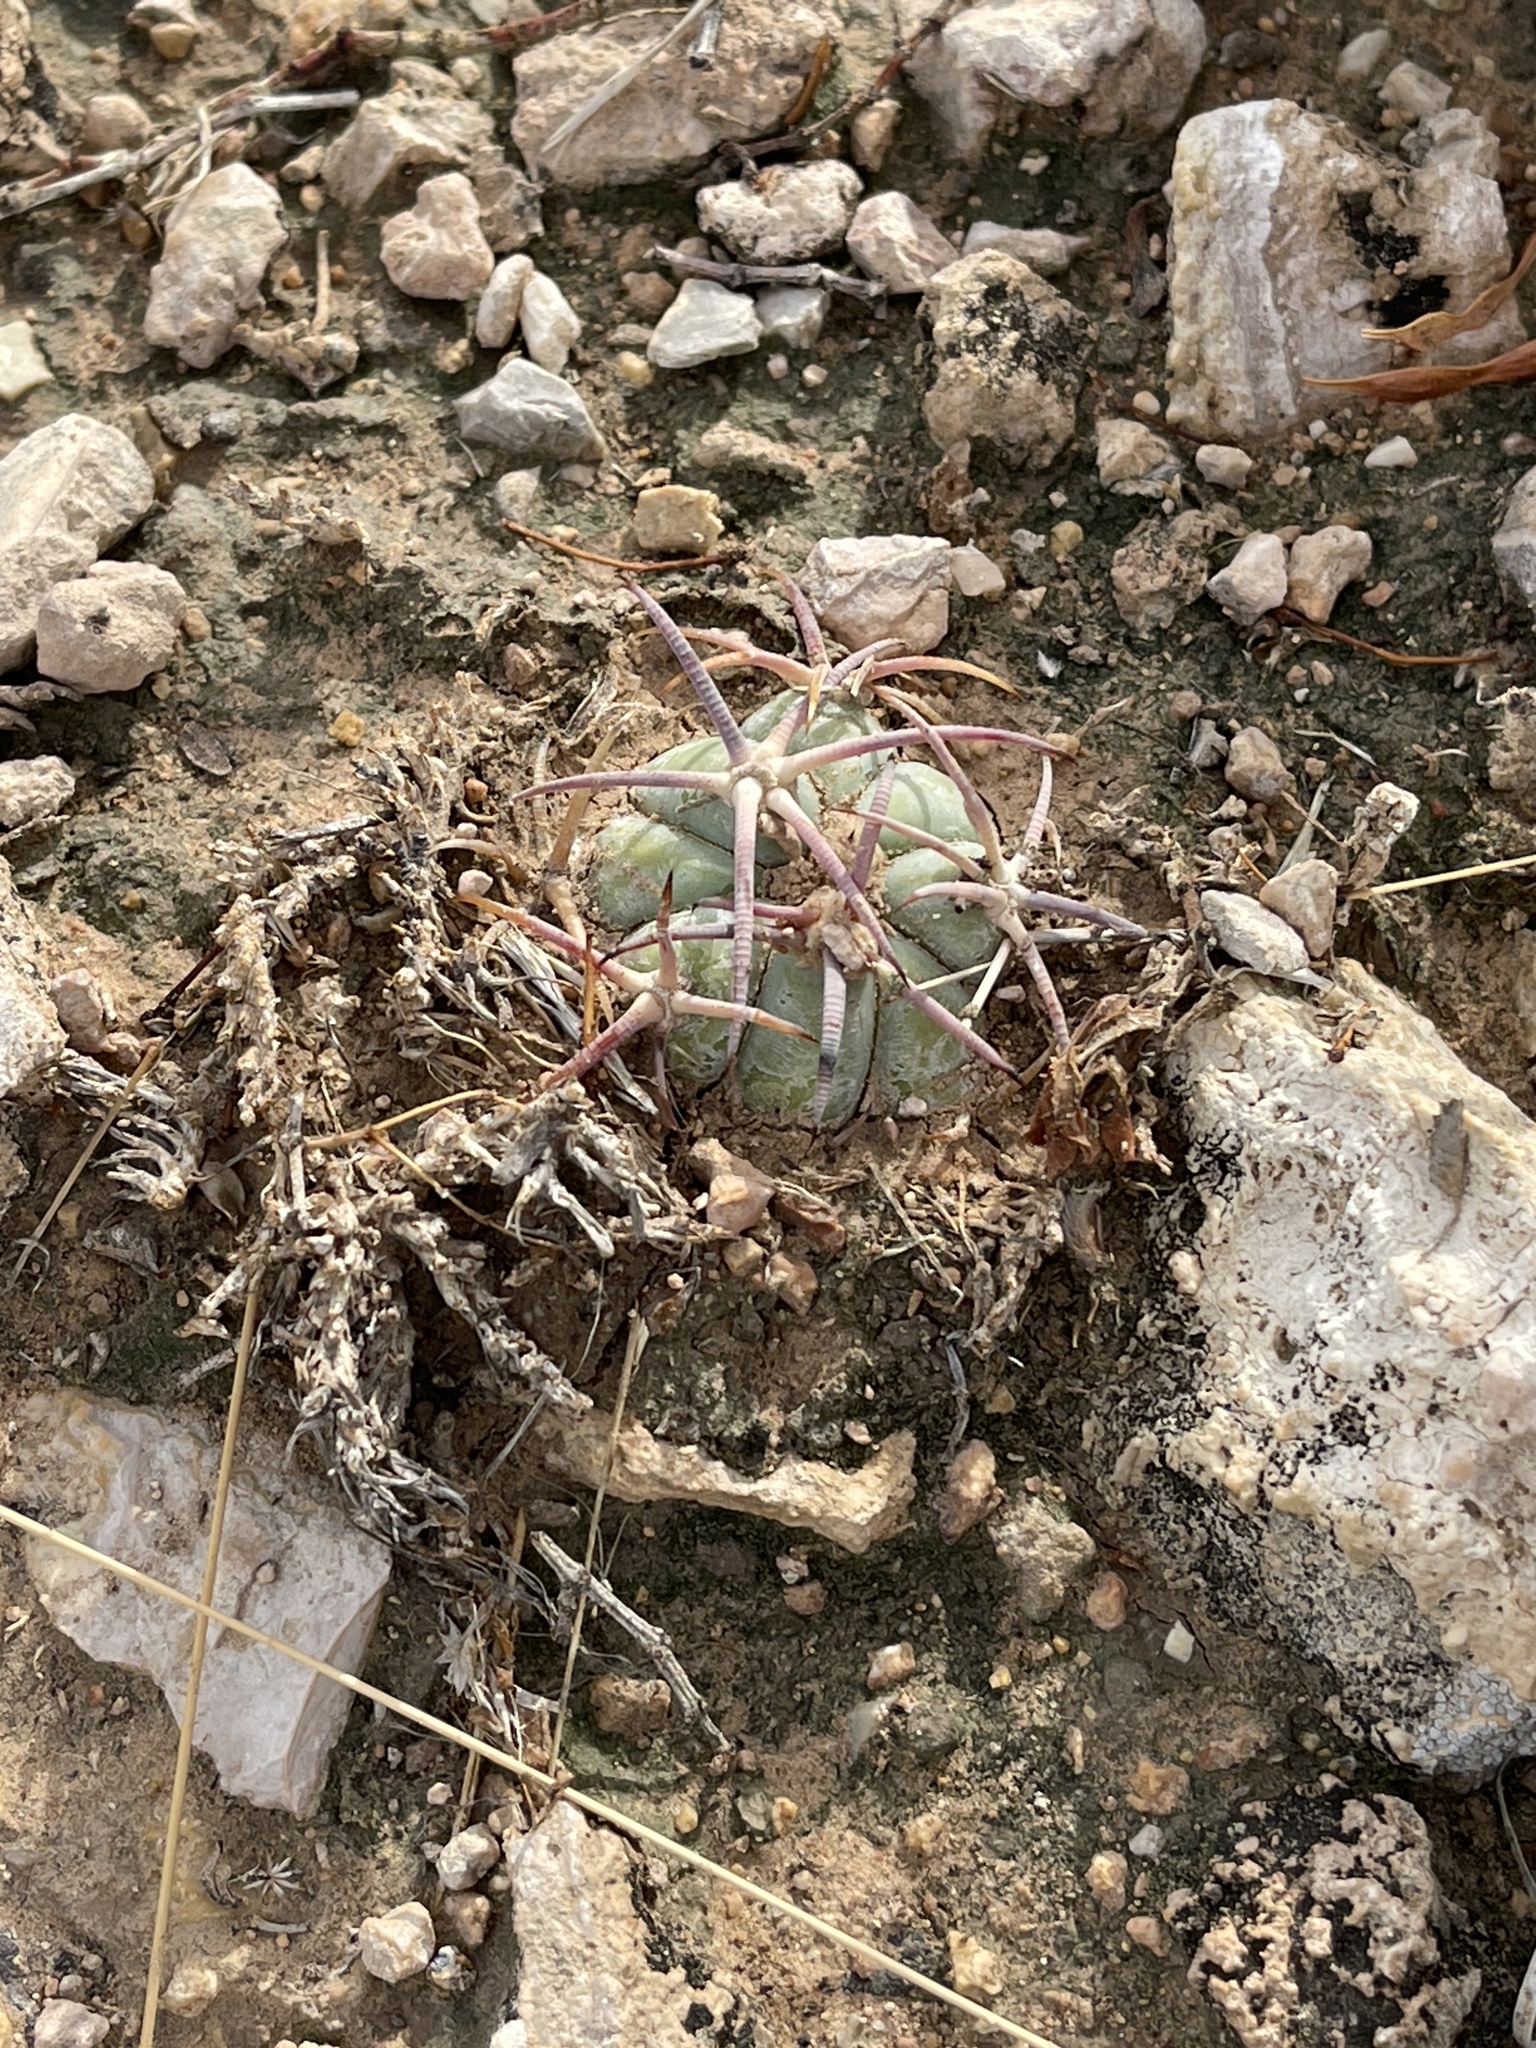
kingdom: Plantae
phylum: Tracheophyta
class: Magnoliopsida
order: Caryophyllales
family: Cactaceae
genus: Echinocactus
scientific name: Echinocactus horizonthalonius
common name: Devilshead
